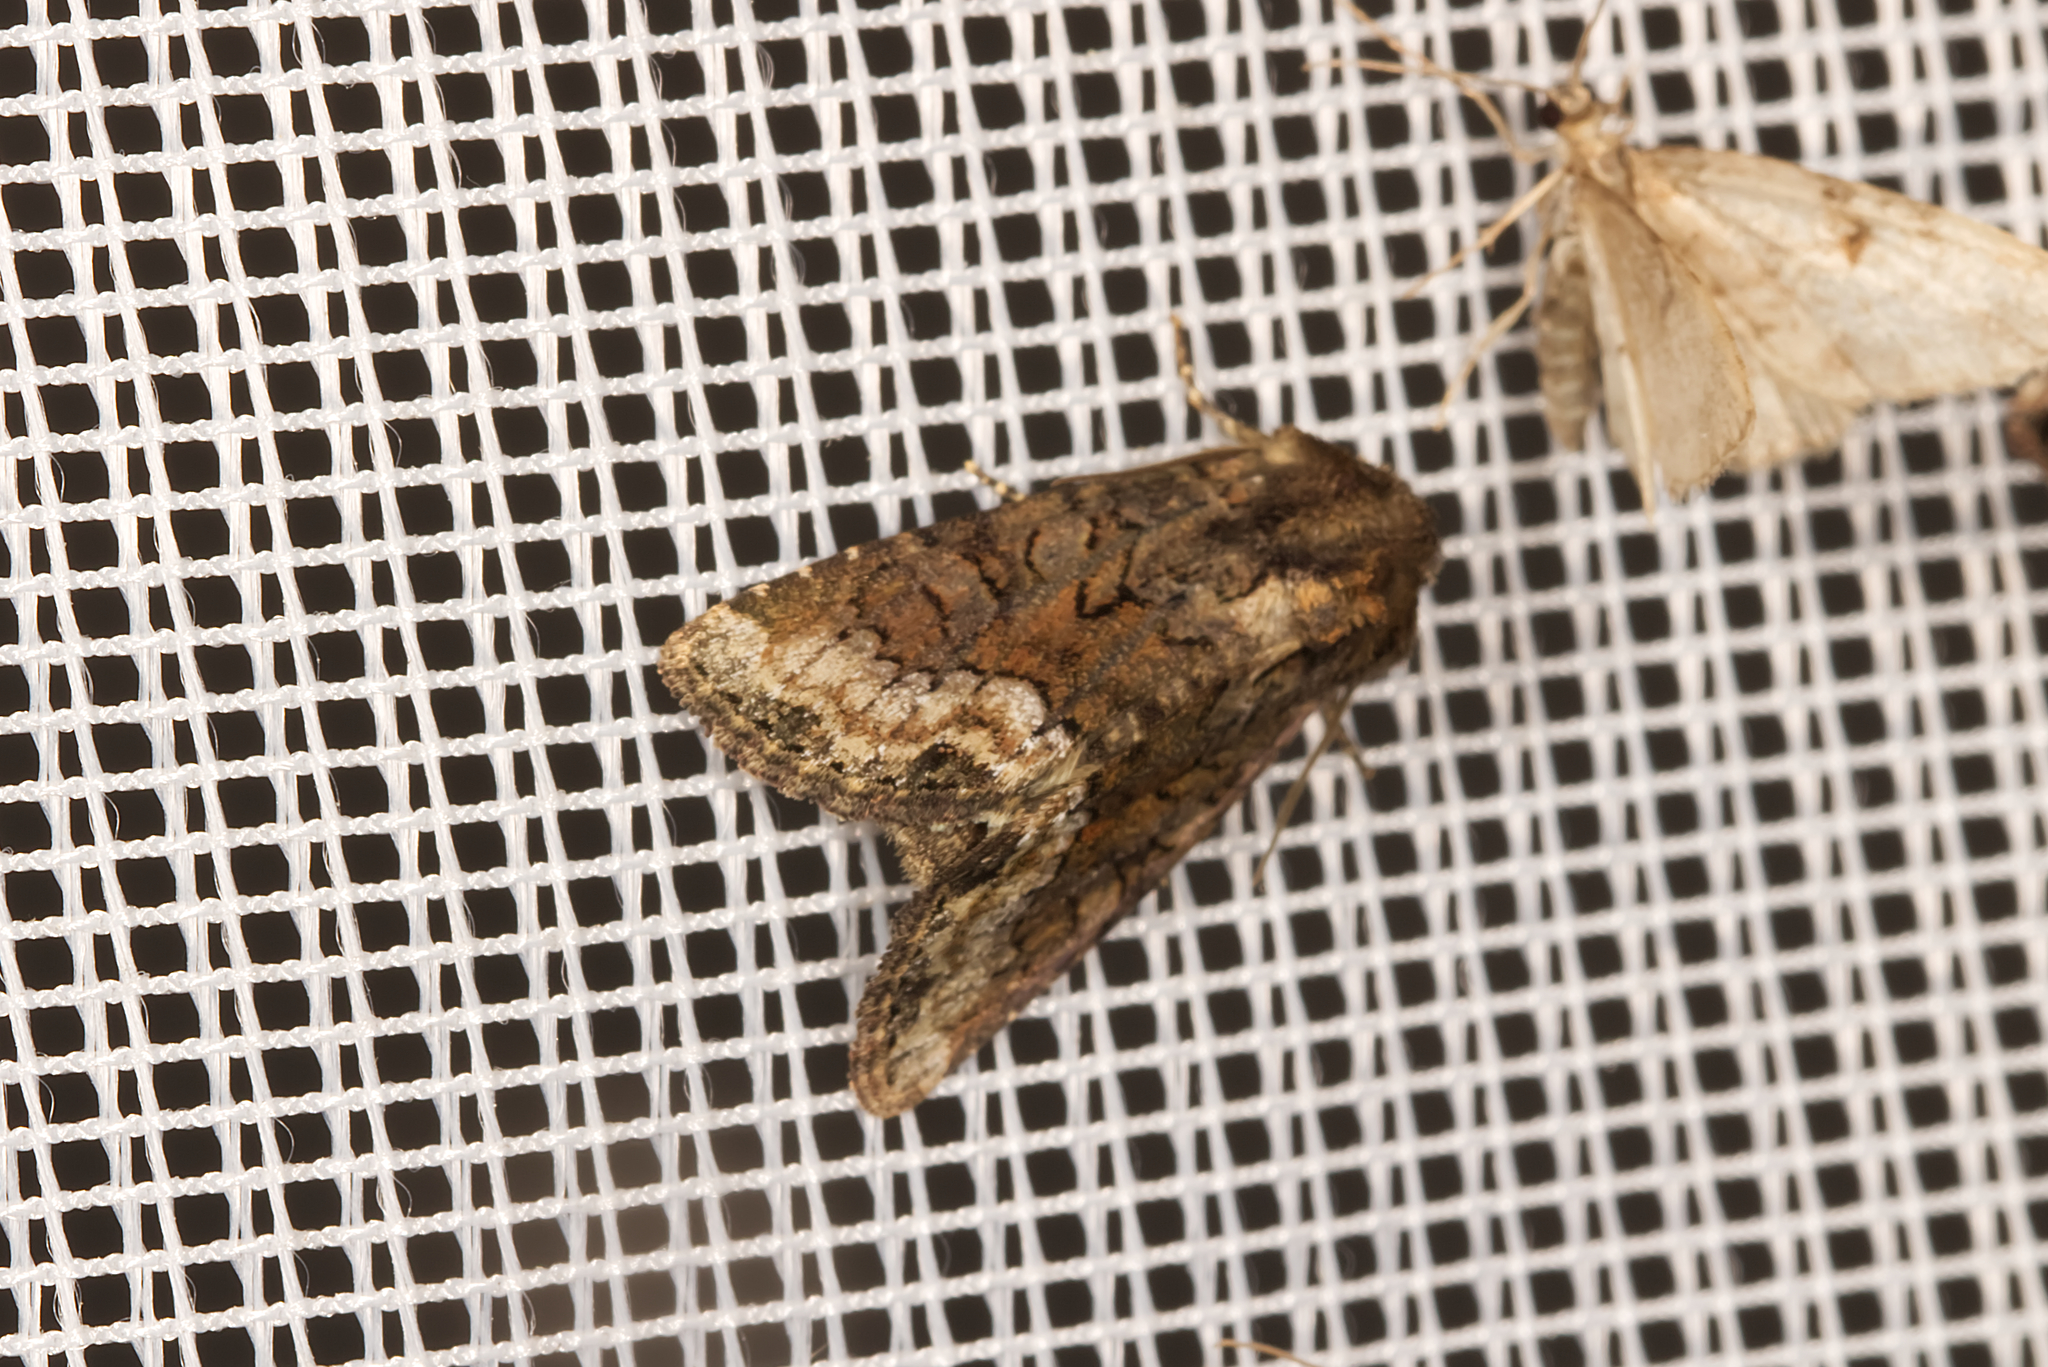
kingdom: Animalia
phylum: Arthropoda
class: Insecta
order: Lepidoptera
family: Noctuidae
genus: Oligia
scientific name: Oligia strigilis
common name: Marbled minor
